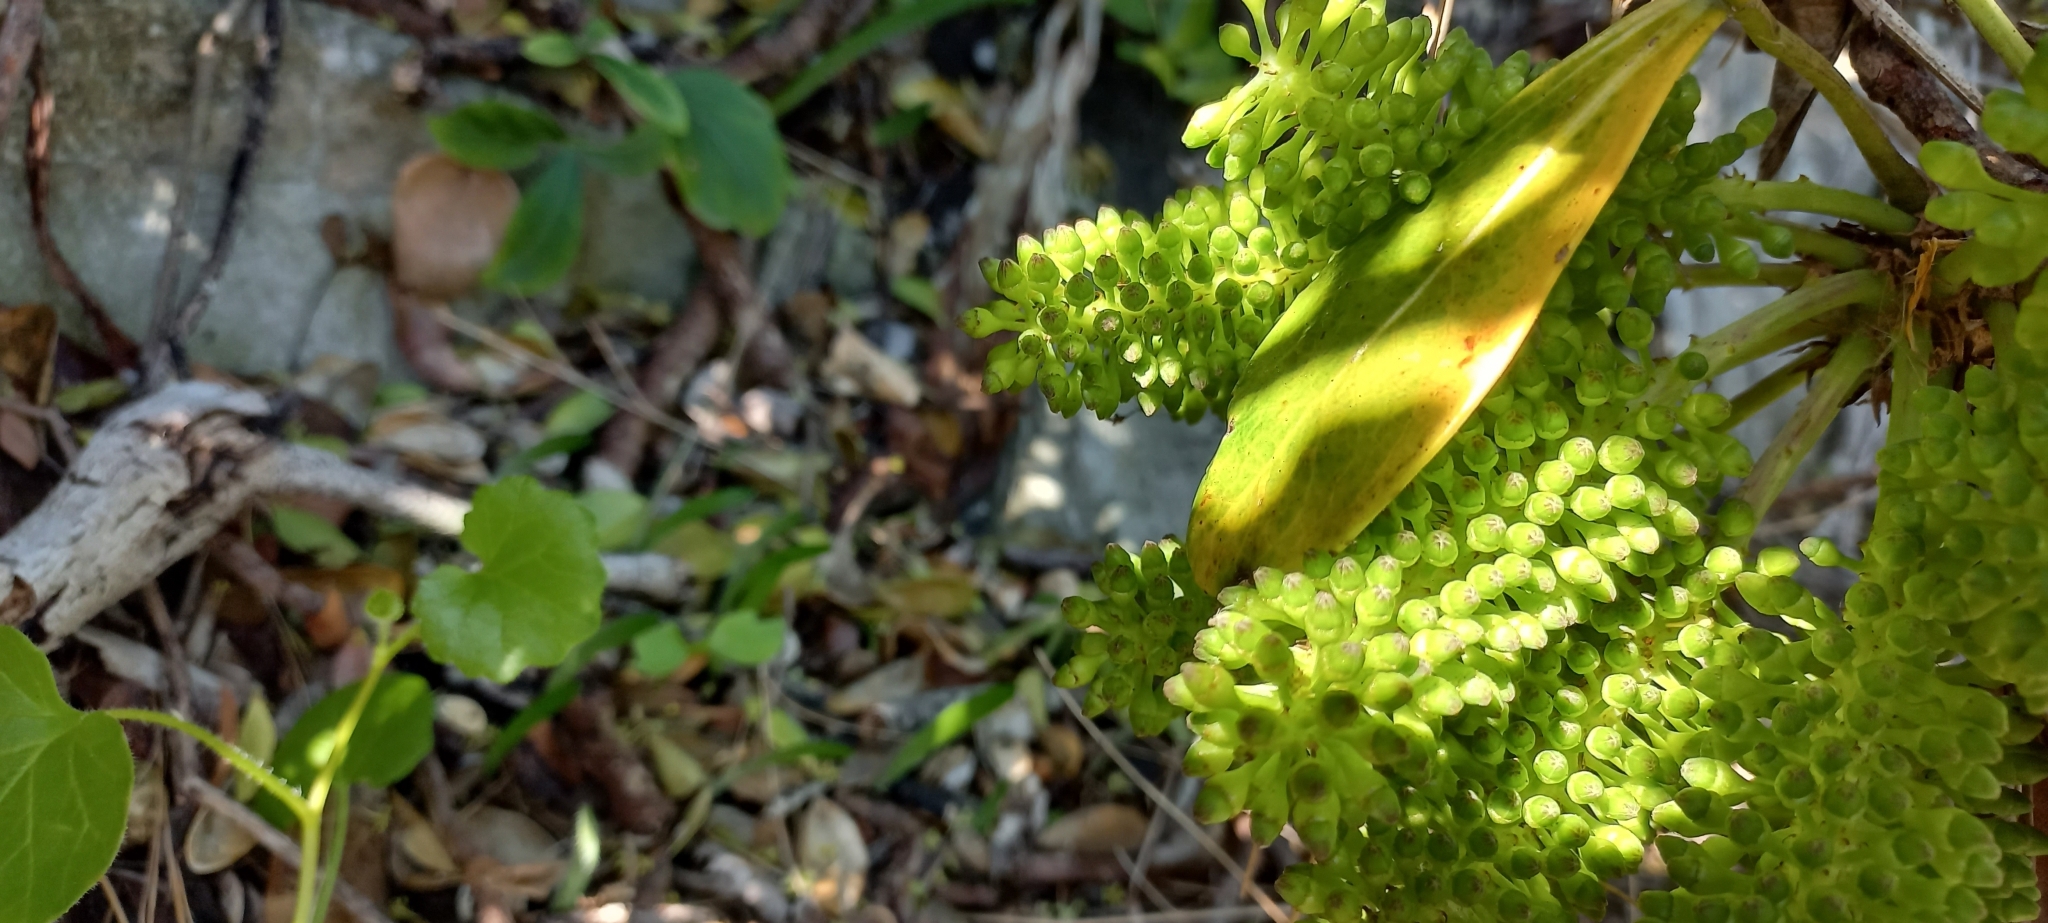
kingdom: Plantae
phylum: Tracheophyta
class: Magnoliopsida
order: Apiales
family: Araliaceae
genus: Cussonia
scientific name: Cussonia thyrsiflora
